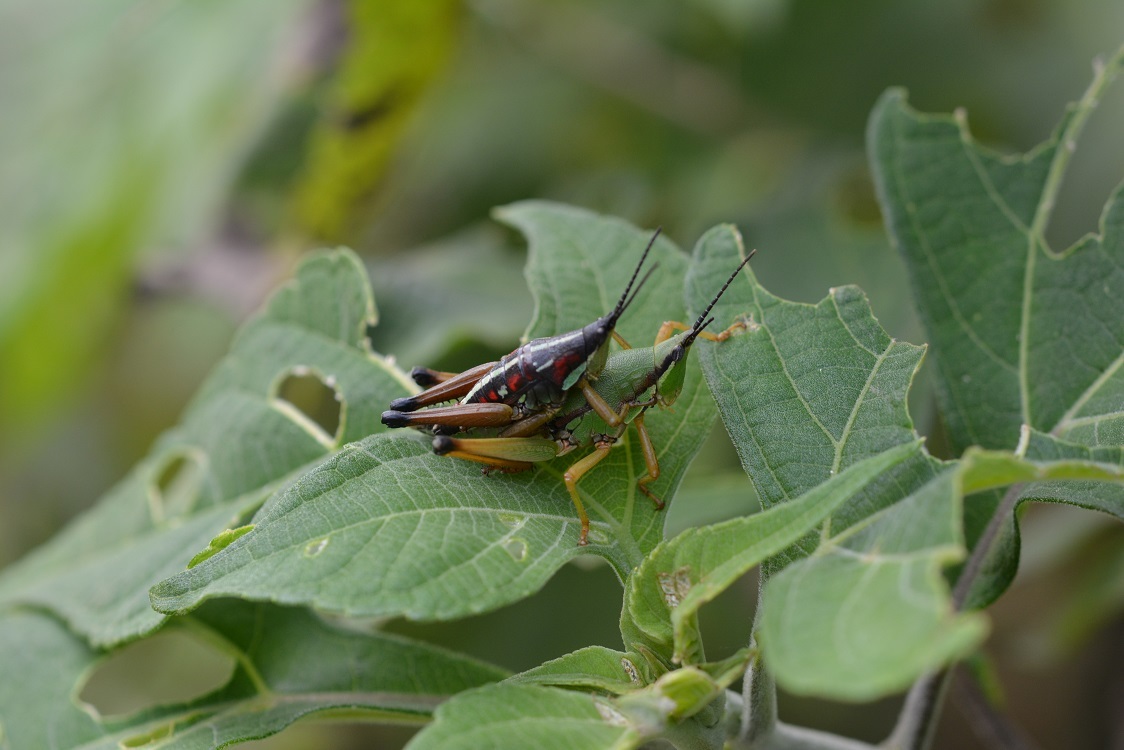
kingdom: Animalia
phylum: Arthropoda
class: Insecta
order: Orthoptera
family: Pyrgomorphidae
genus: Sphenarium
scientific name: Sphenarium histrio
